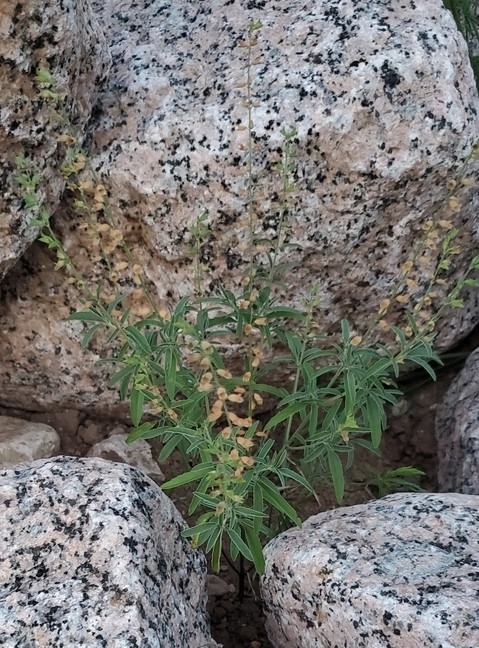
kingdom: Plantae
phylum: Tracheophyta
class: Magnoliopsida
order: Lamiales
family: Lamiaceae
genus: Salvia
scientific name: Salvia reflexa
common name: Mintweed
